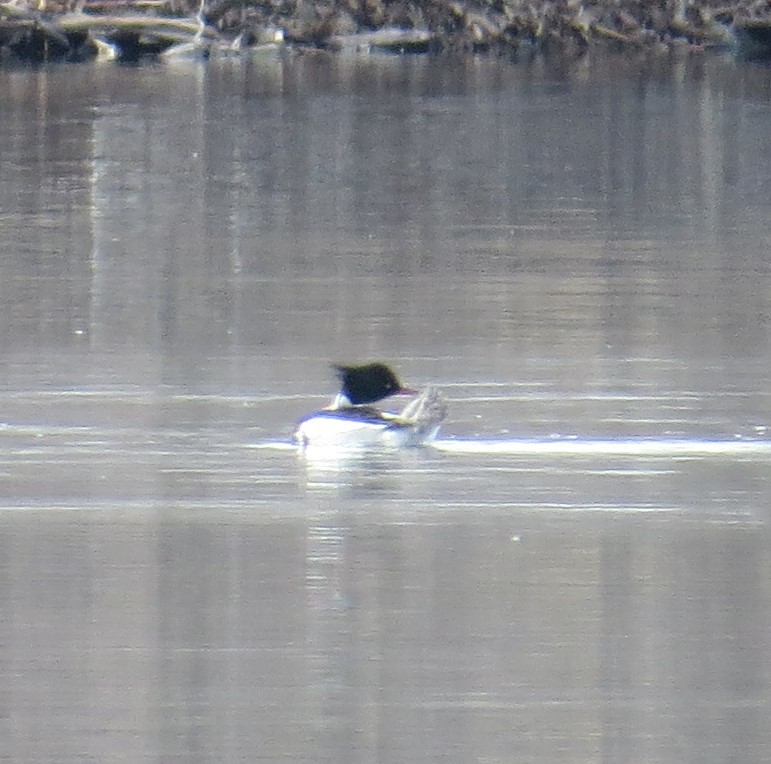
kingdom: Animalia
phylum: Chordata
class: Aves
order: Anseriformes
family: Anatidae
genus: Mergus
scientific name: Mergus serrator
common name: Red-breasted merganser
